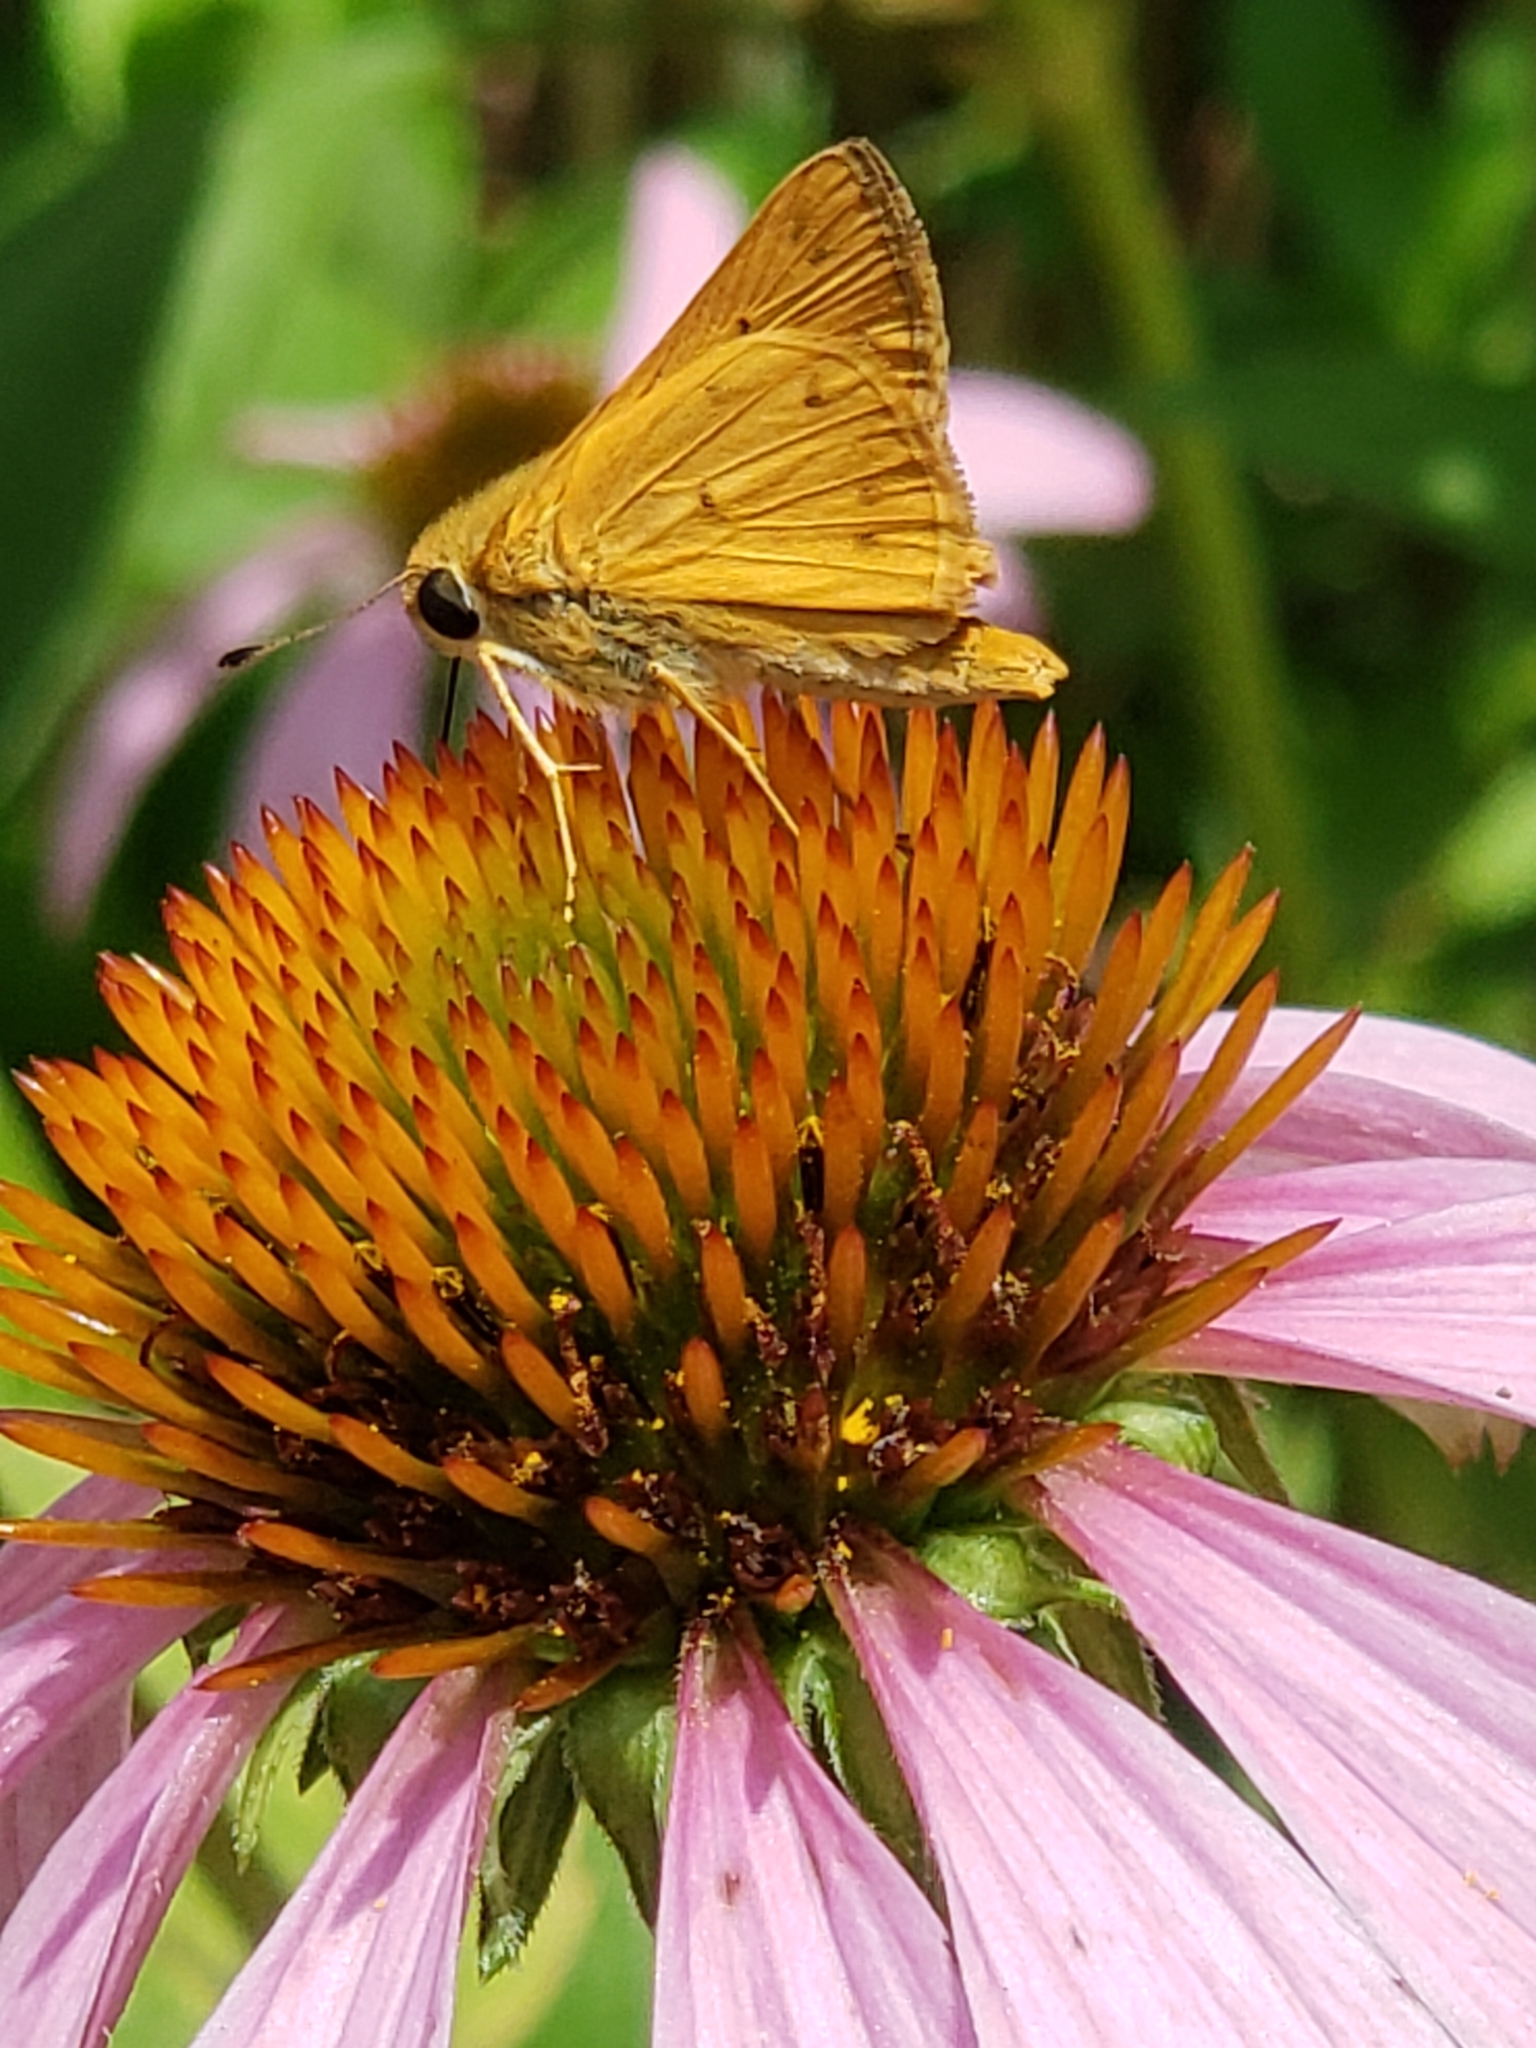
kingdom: Animalia
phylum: Arthropoda
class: Insecta
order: Lepidoptera
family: Hesperiidae
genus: Hylephila
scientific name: Hylephila phyleus
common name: Fiery skipper
